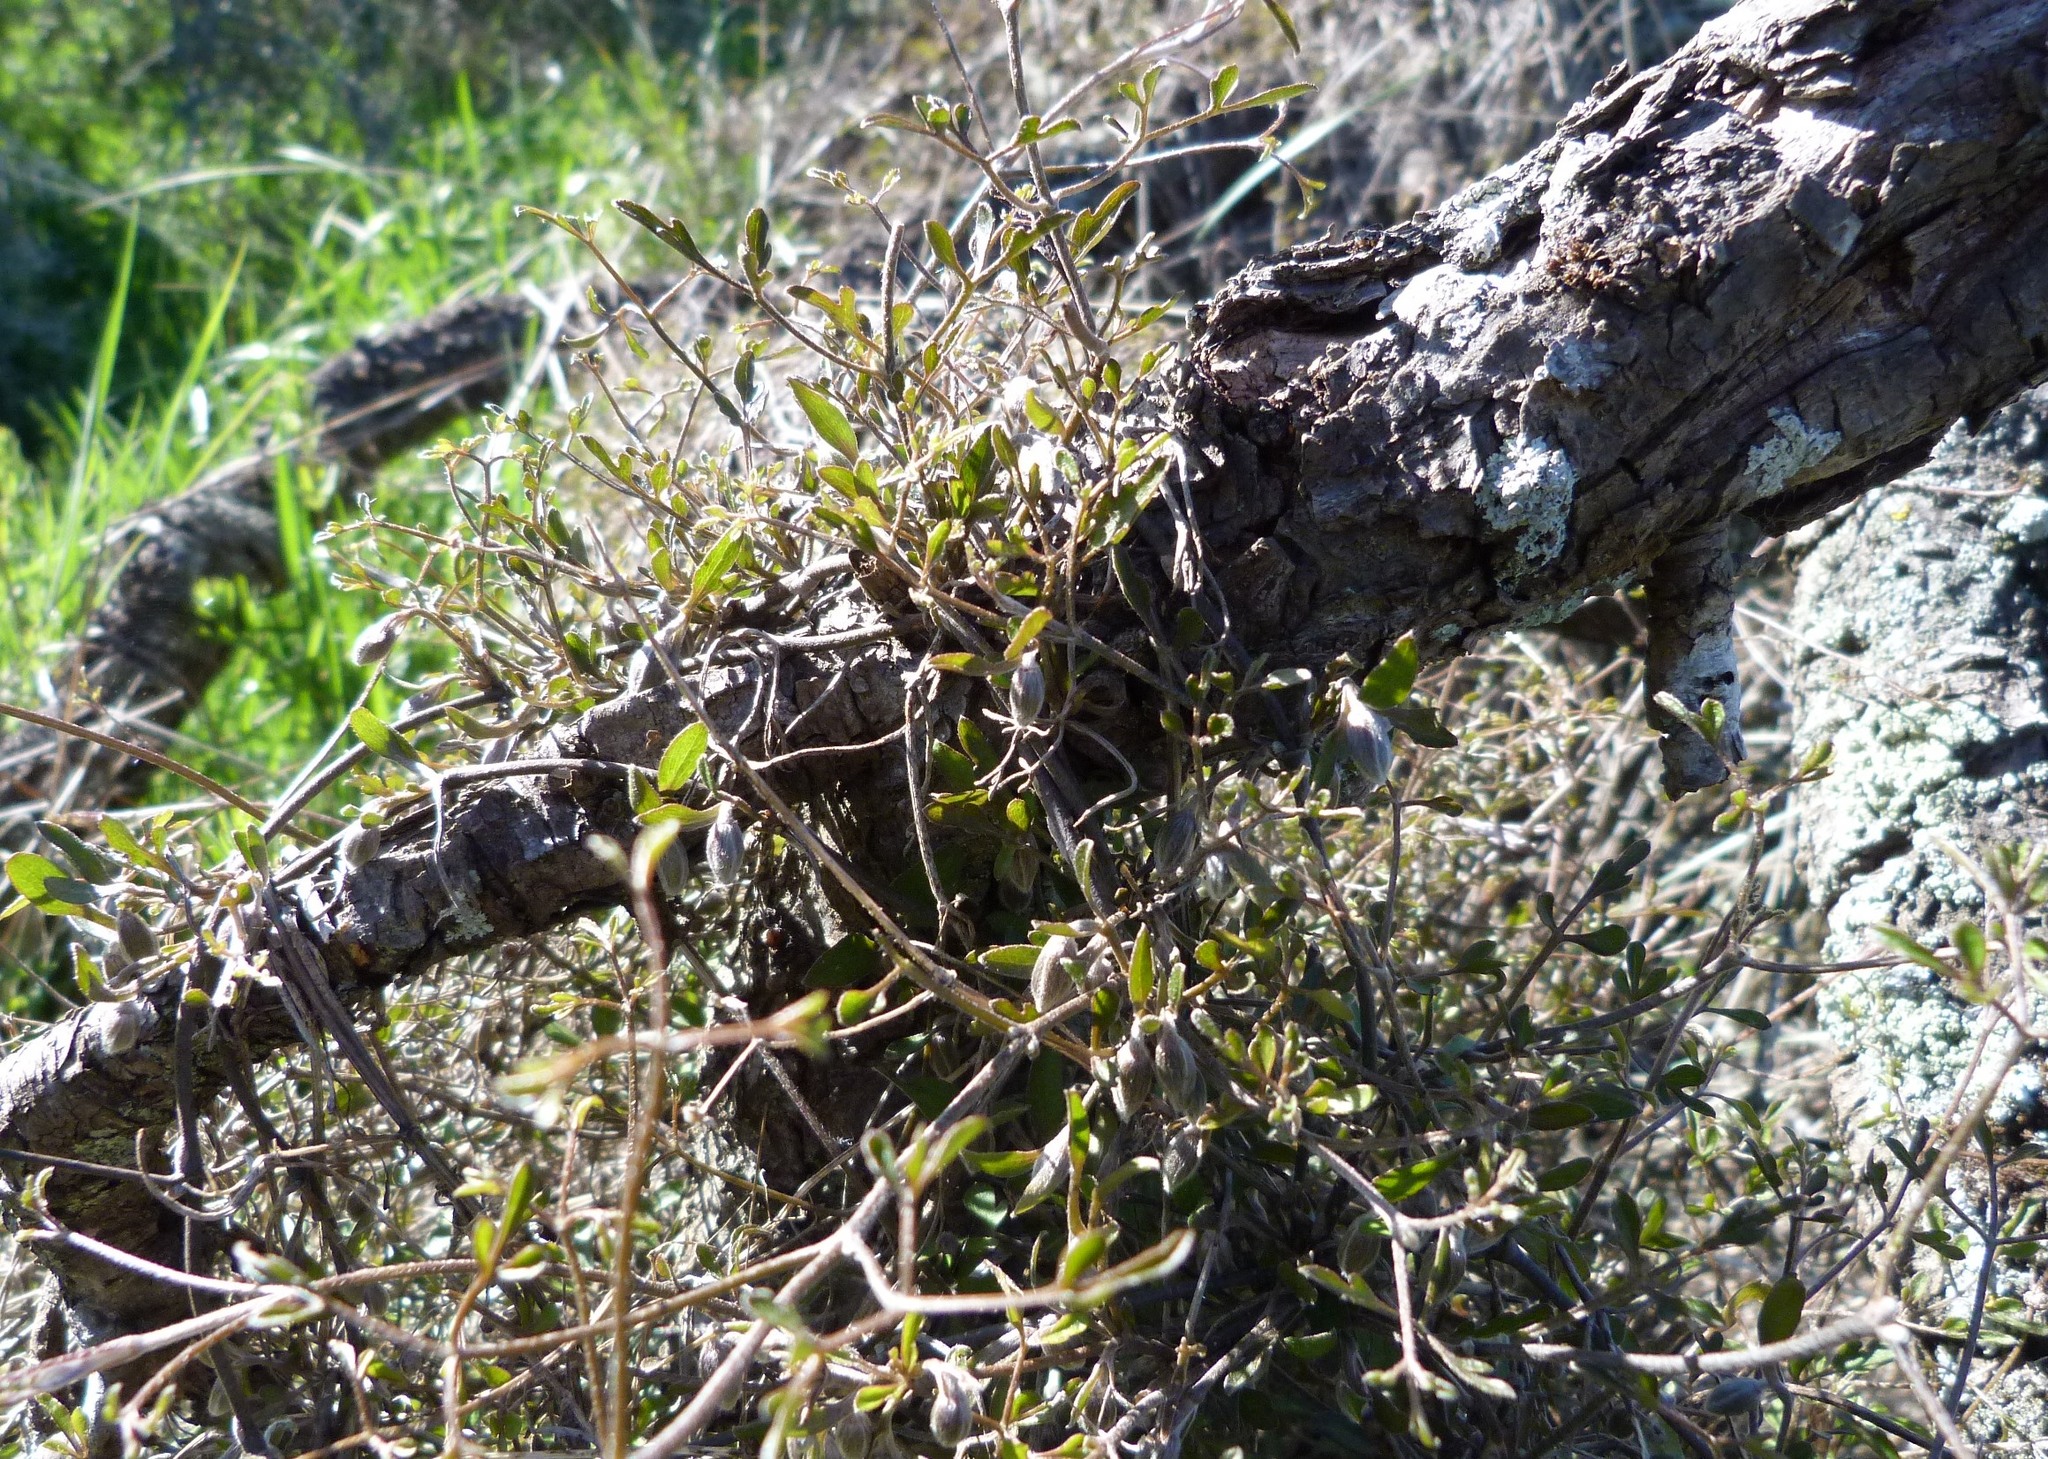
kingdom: Plantae
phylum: Tracheophyta
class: Magnoliopsida
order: Ranunculales
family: Ranunculaceae
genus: Clematis
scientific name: Clematis quadribracteolata
